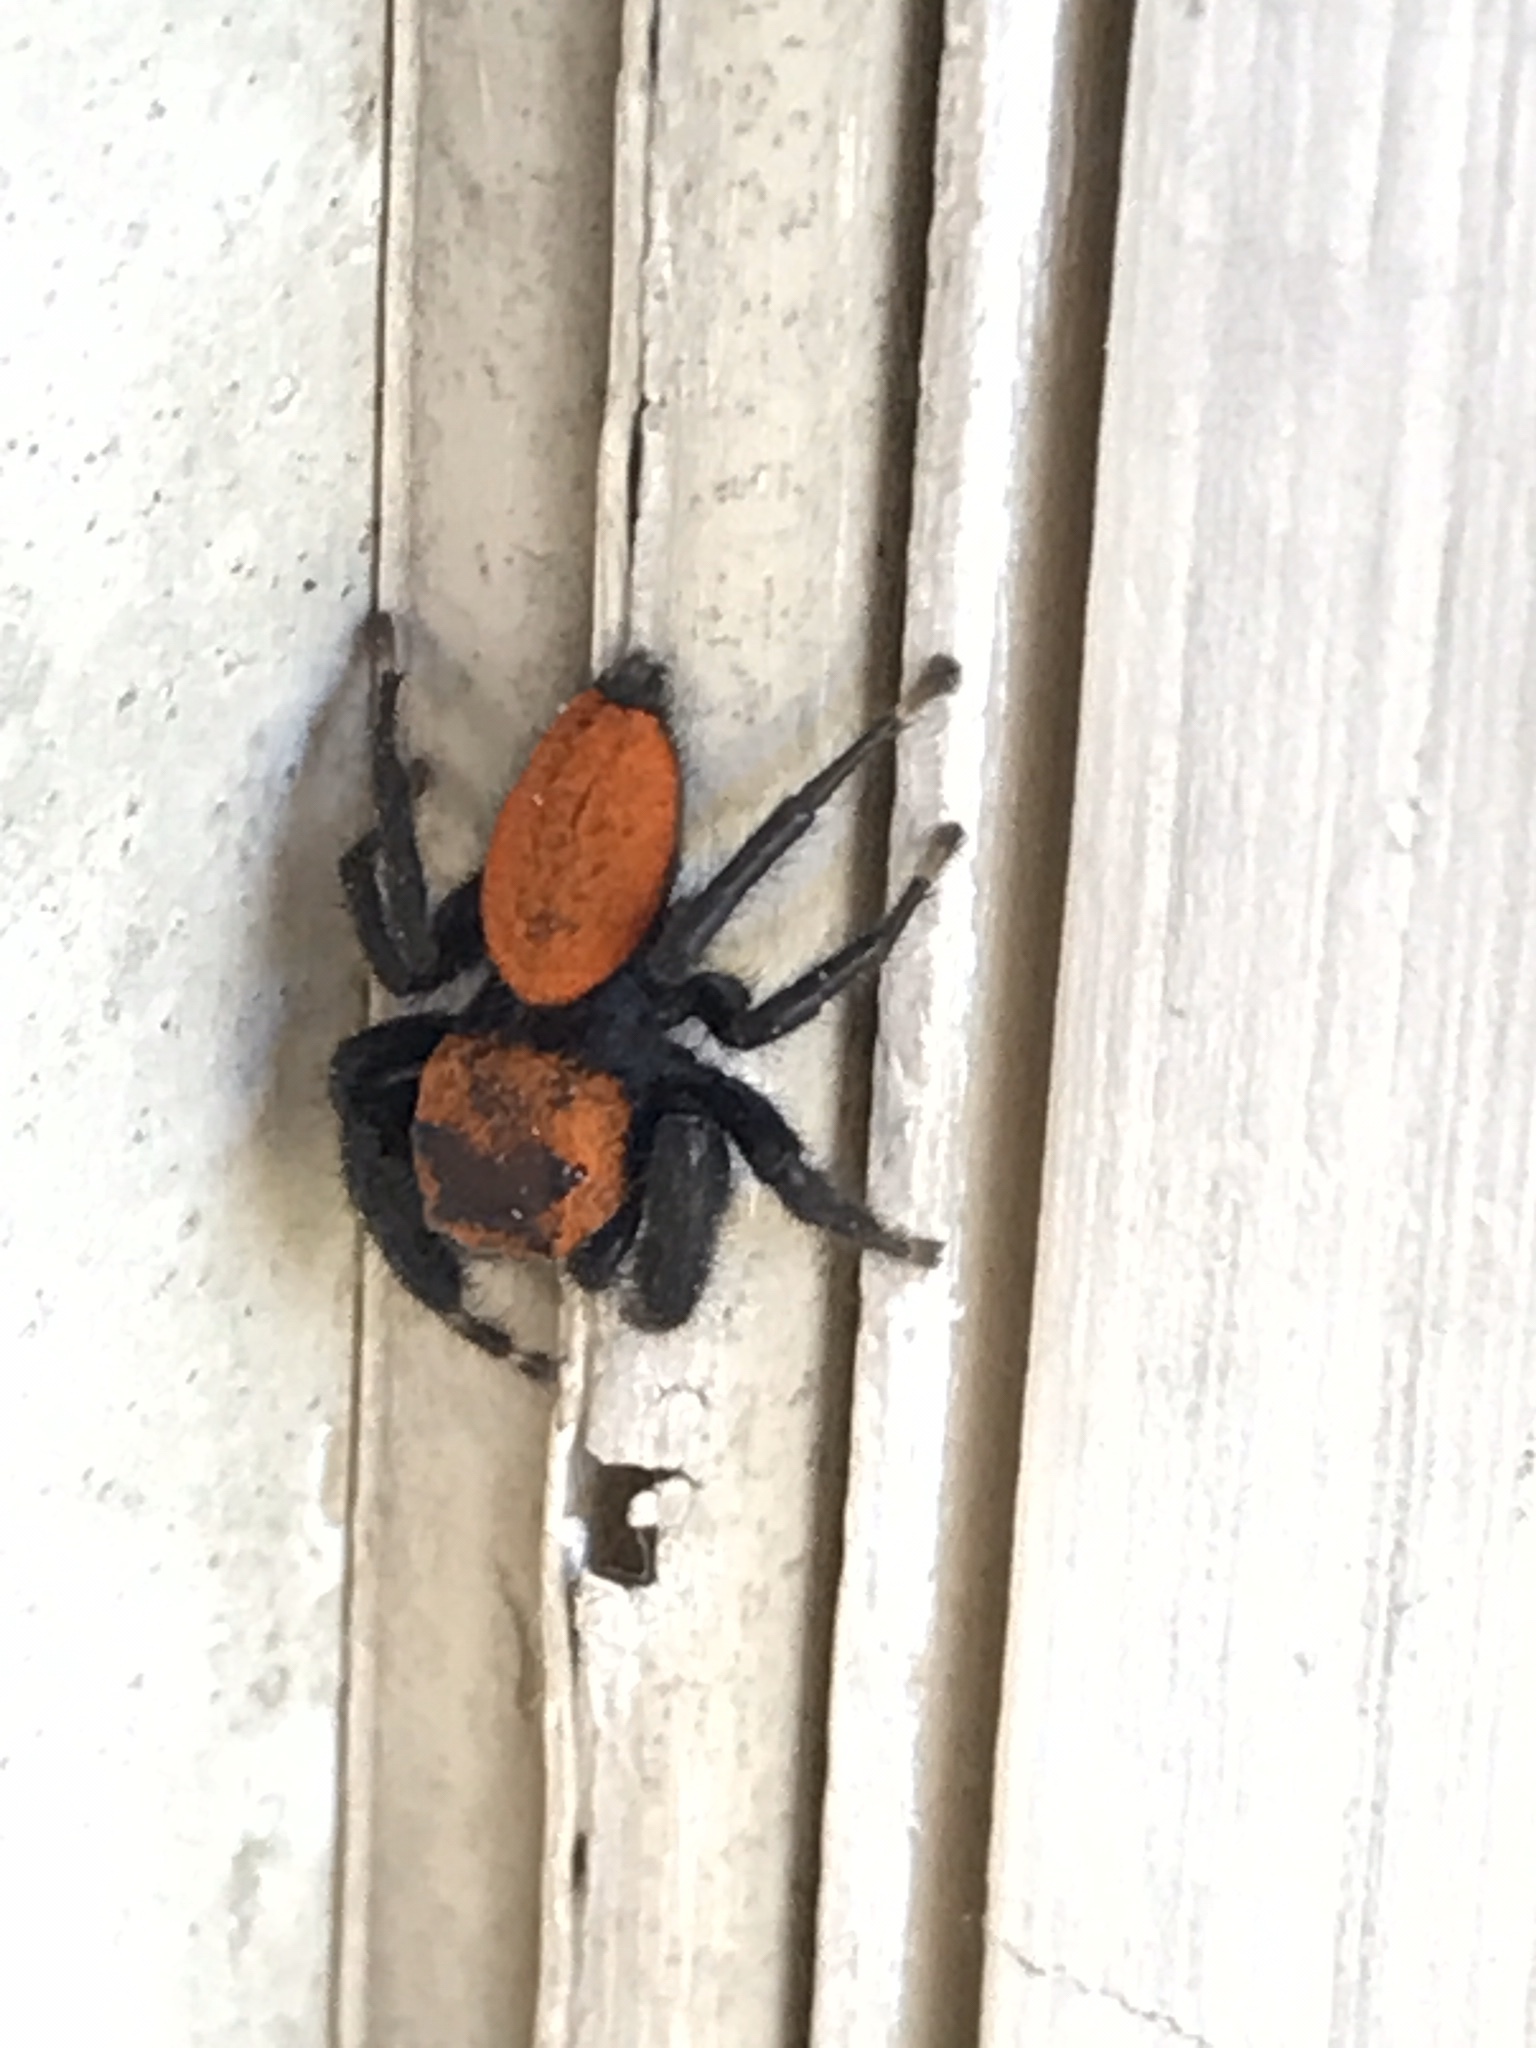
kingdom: Animalia
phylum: Arthropoda
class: Arachnida
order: Araneae
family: Salticidae
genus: Phidippus
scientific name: Phidippus cardinalis
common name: Cardinal jumper
